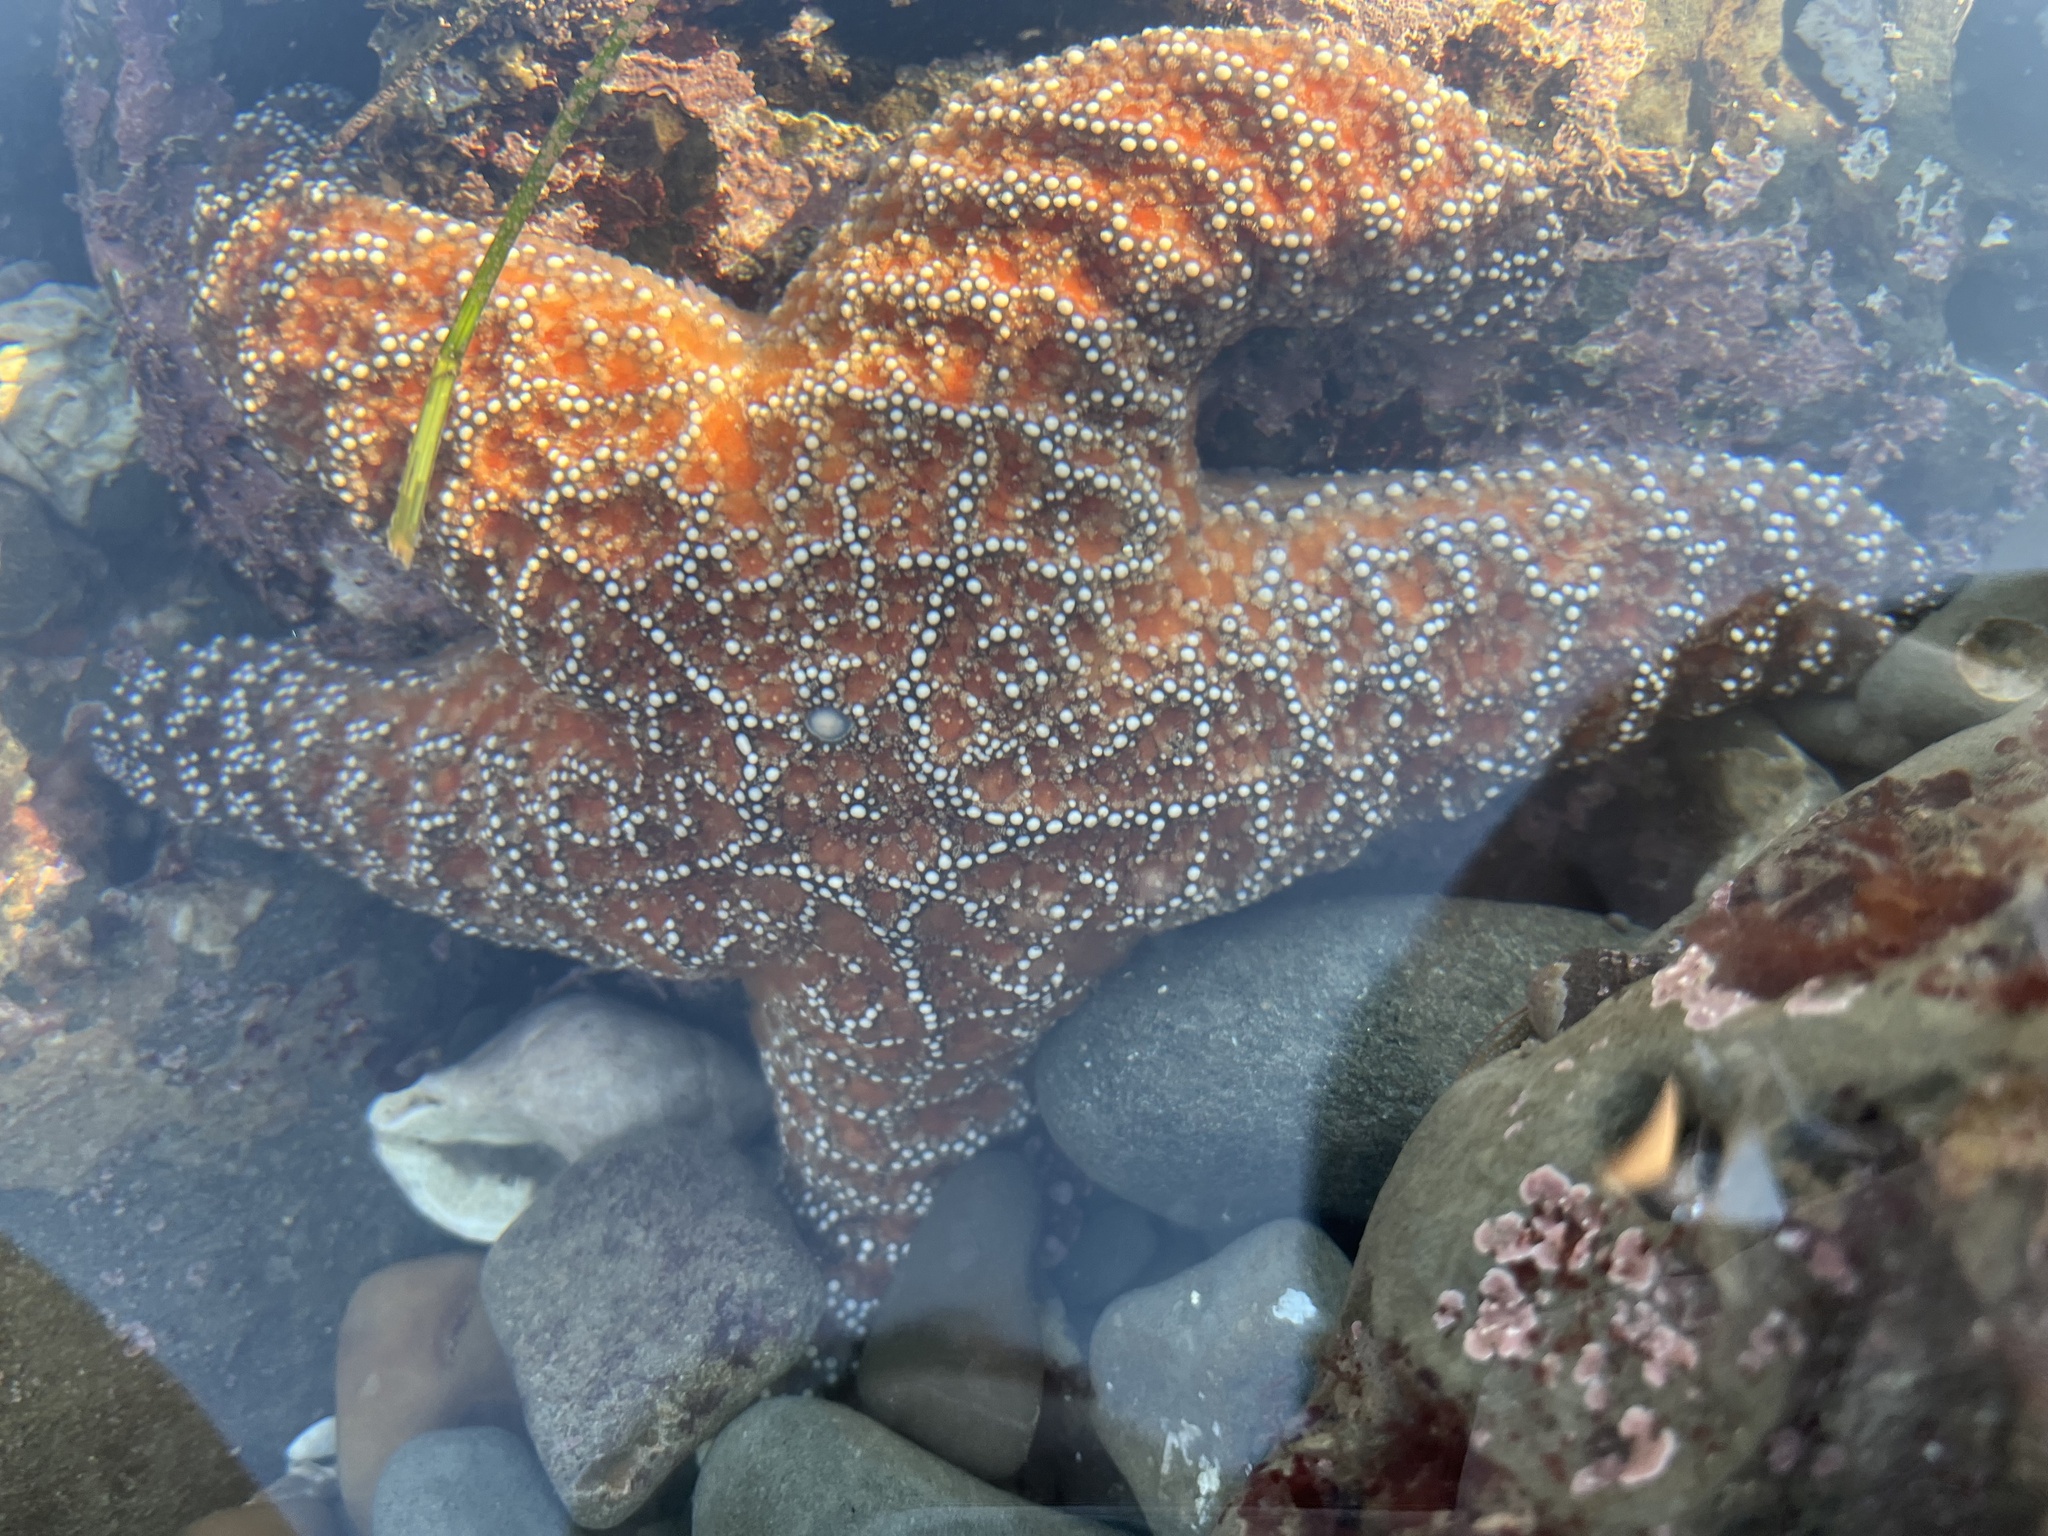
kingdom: Animalia
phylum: Echinodermata
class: Asteroidea
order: Forcipulatida
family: Asteriidae
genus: Pisaster
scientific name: Pisaster ochraceus
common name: Ochre stars
